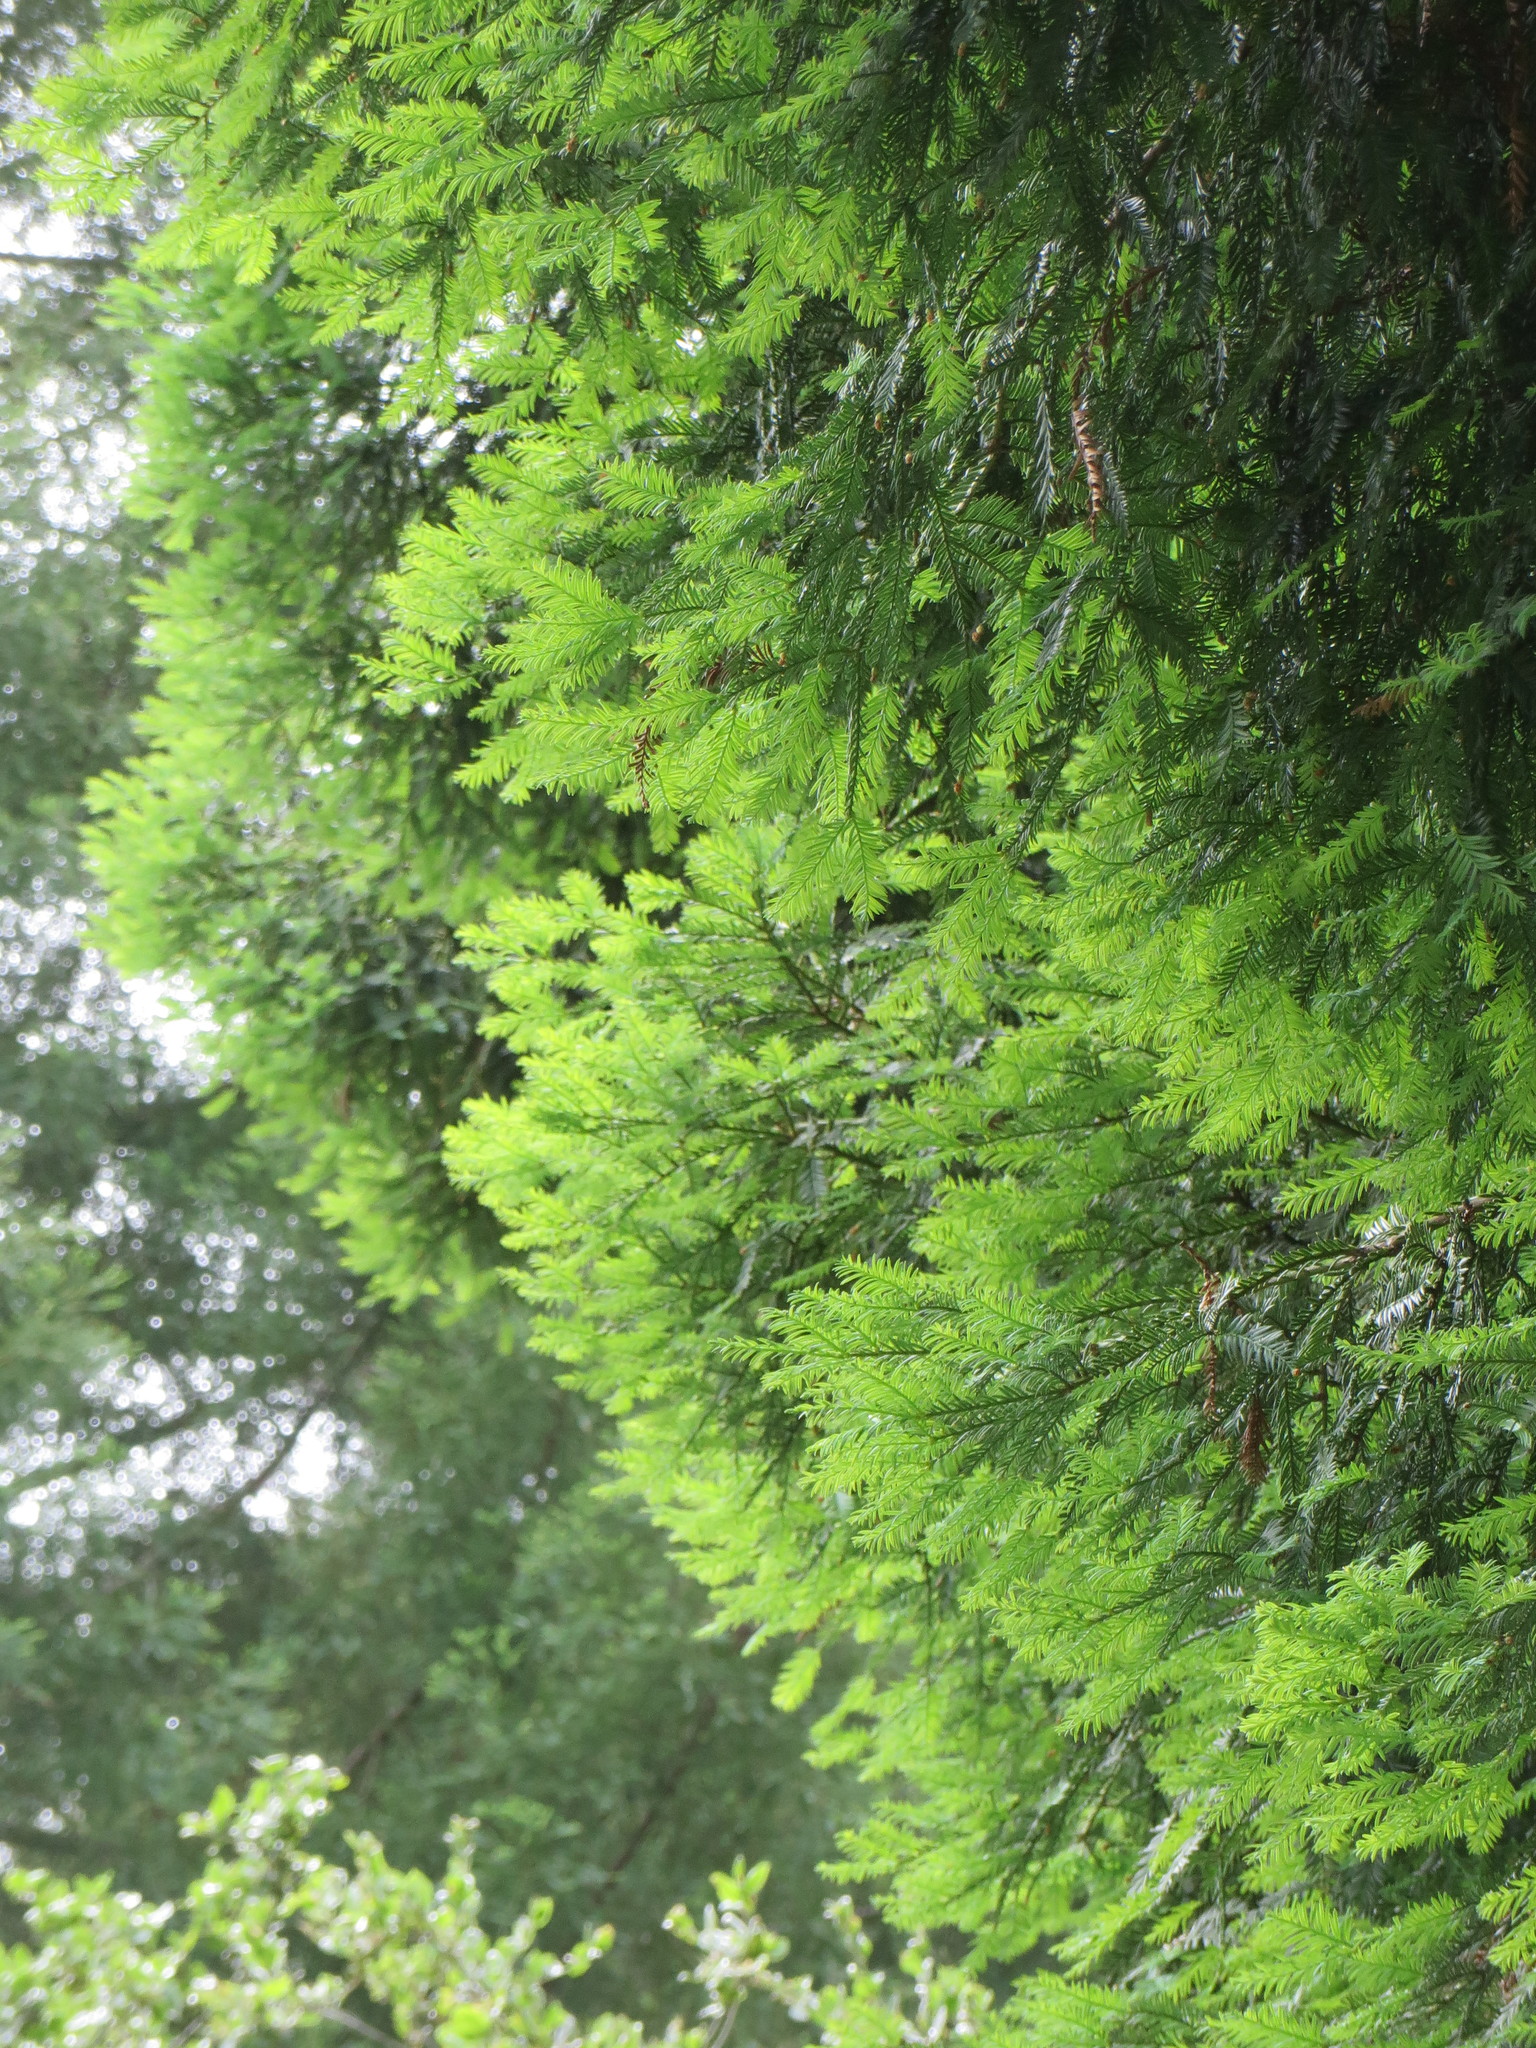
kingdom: Plantae
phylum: Tracheophyta
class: Pinopsida
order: Pinales
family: Cupressaceae
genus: Sequoia
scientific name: Sequoia sempervirens
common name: Coast redwood
